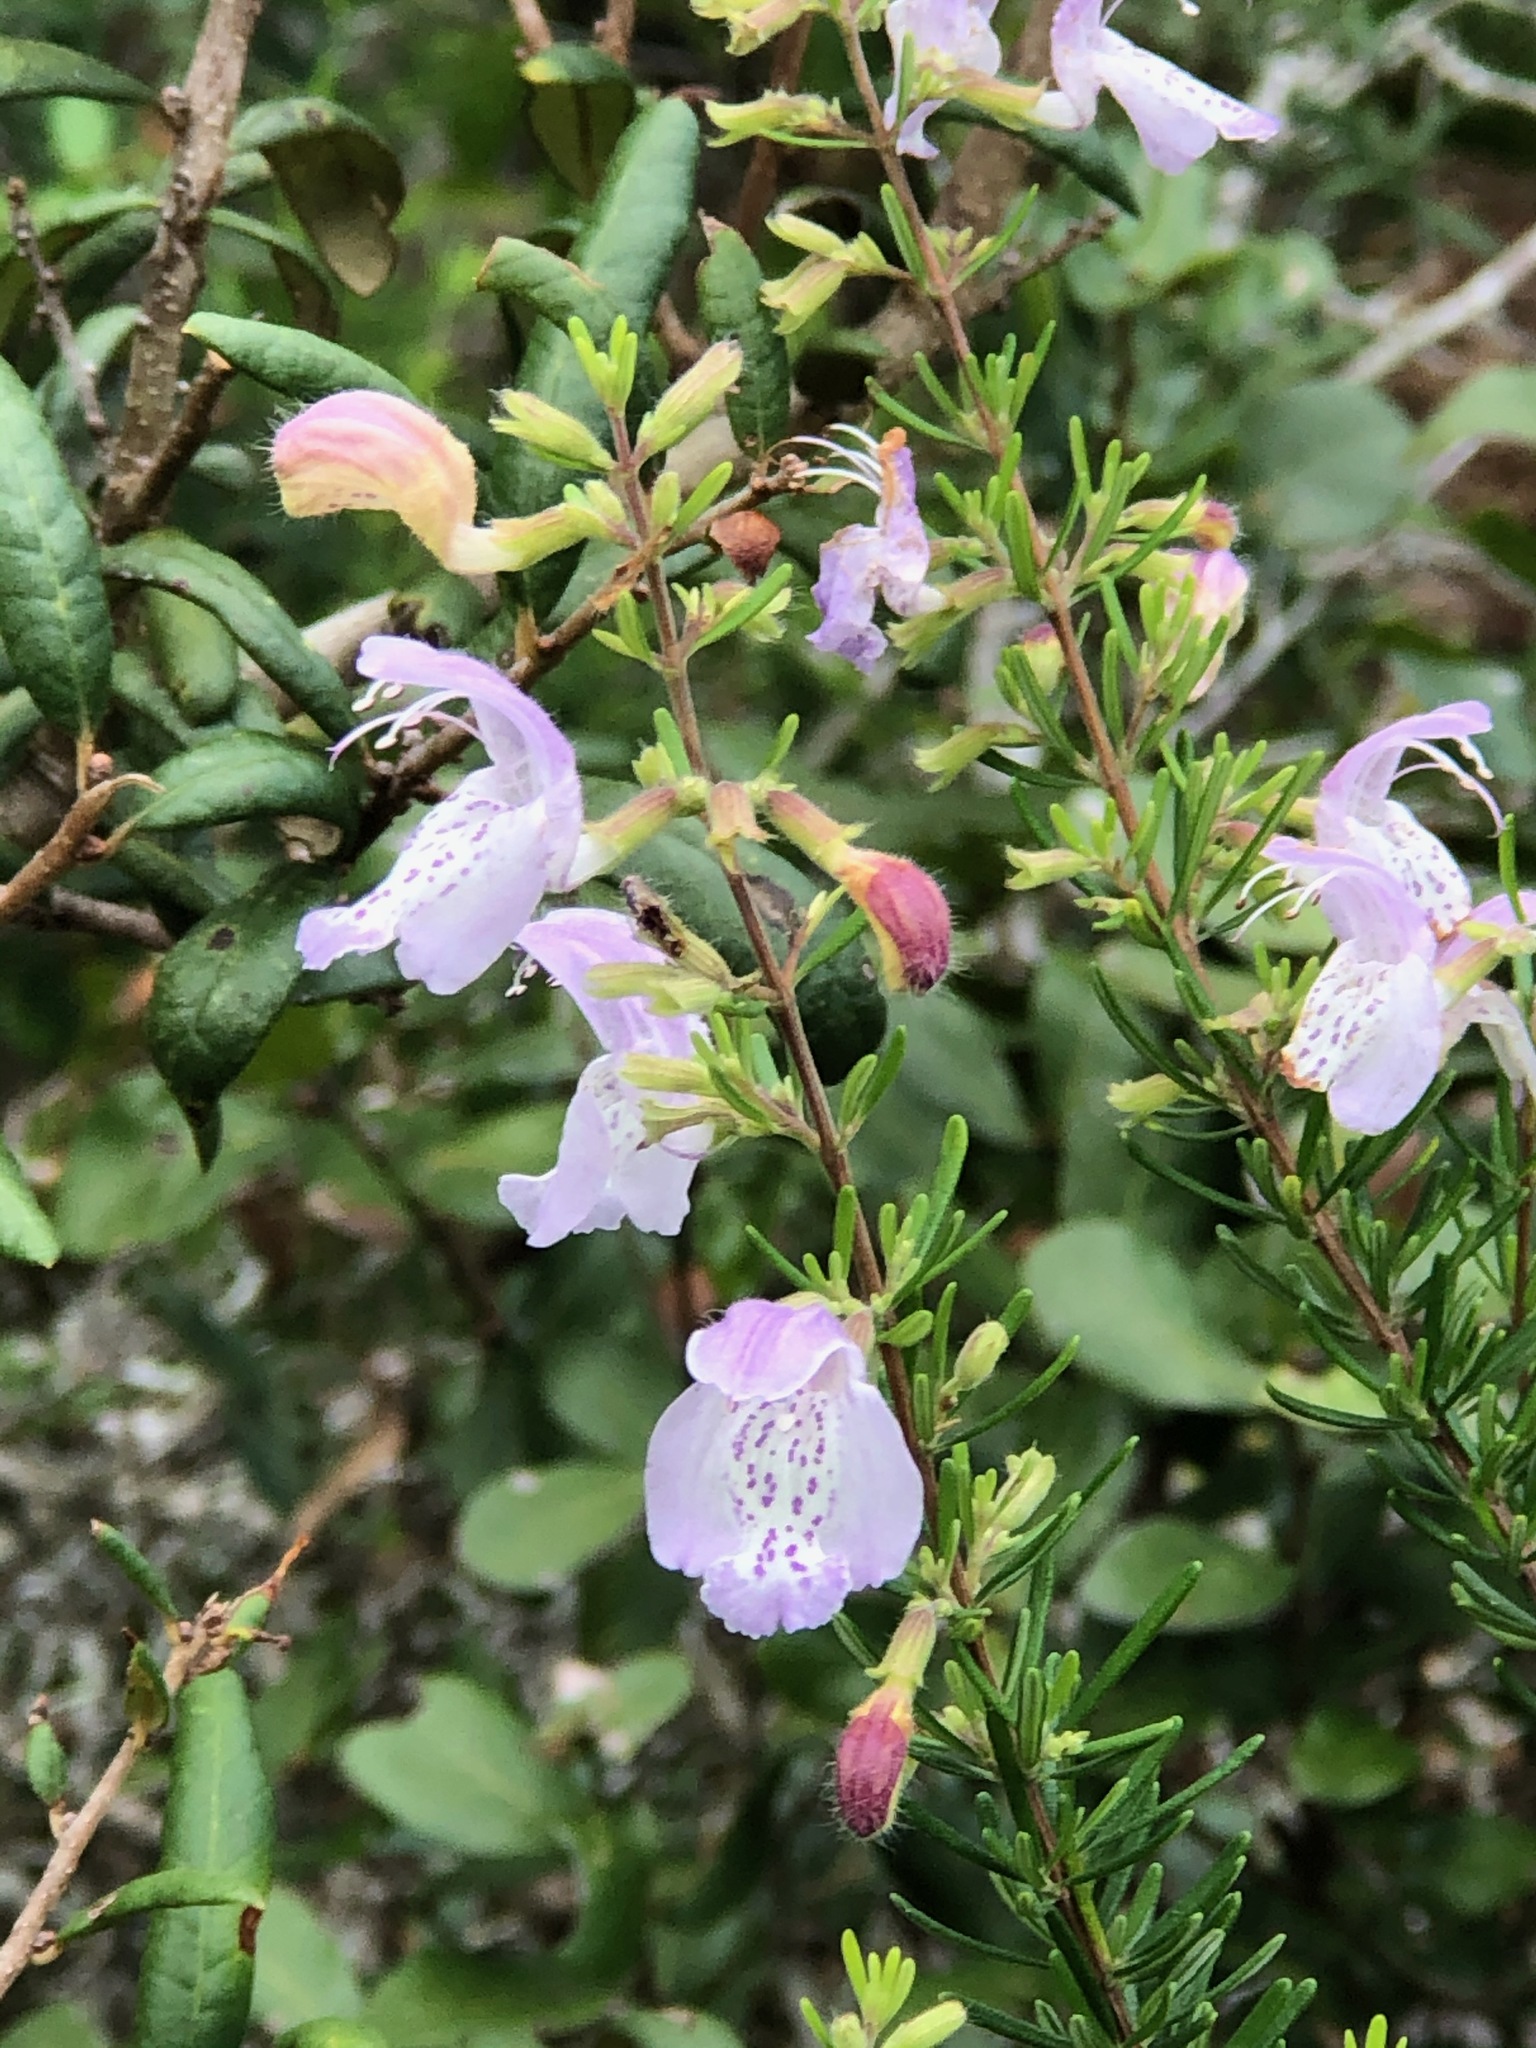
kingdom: Plantae
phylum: Tracheophyta
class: Magnoliopsida
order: Lamiales
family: Lamiaceae
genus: Conradina
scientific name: Conradina grandiflora
